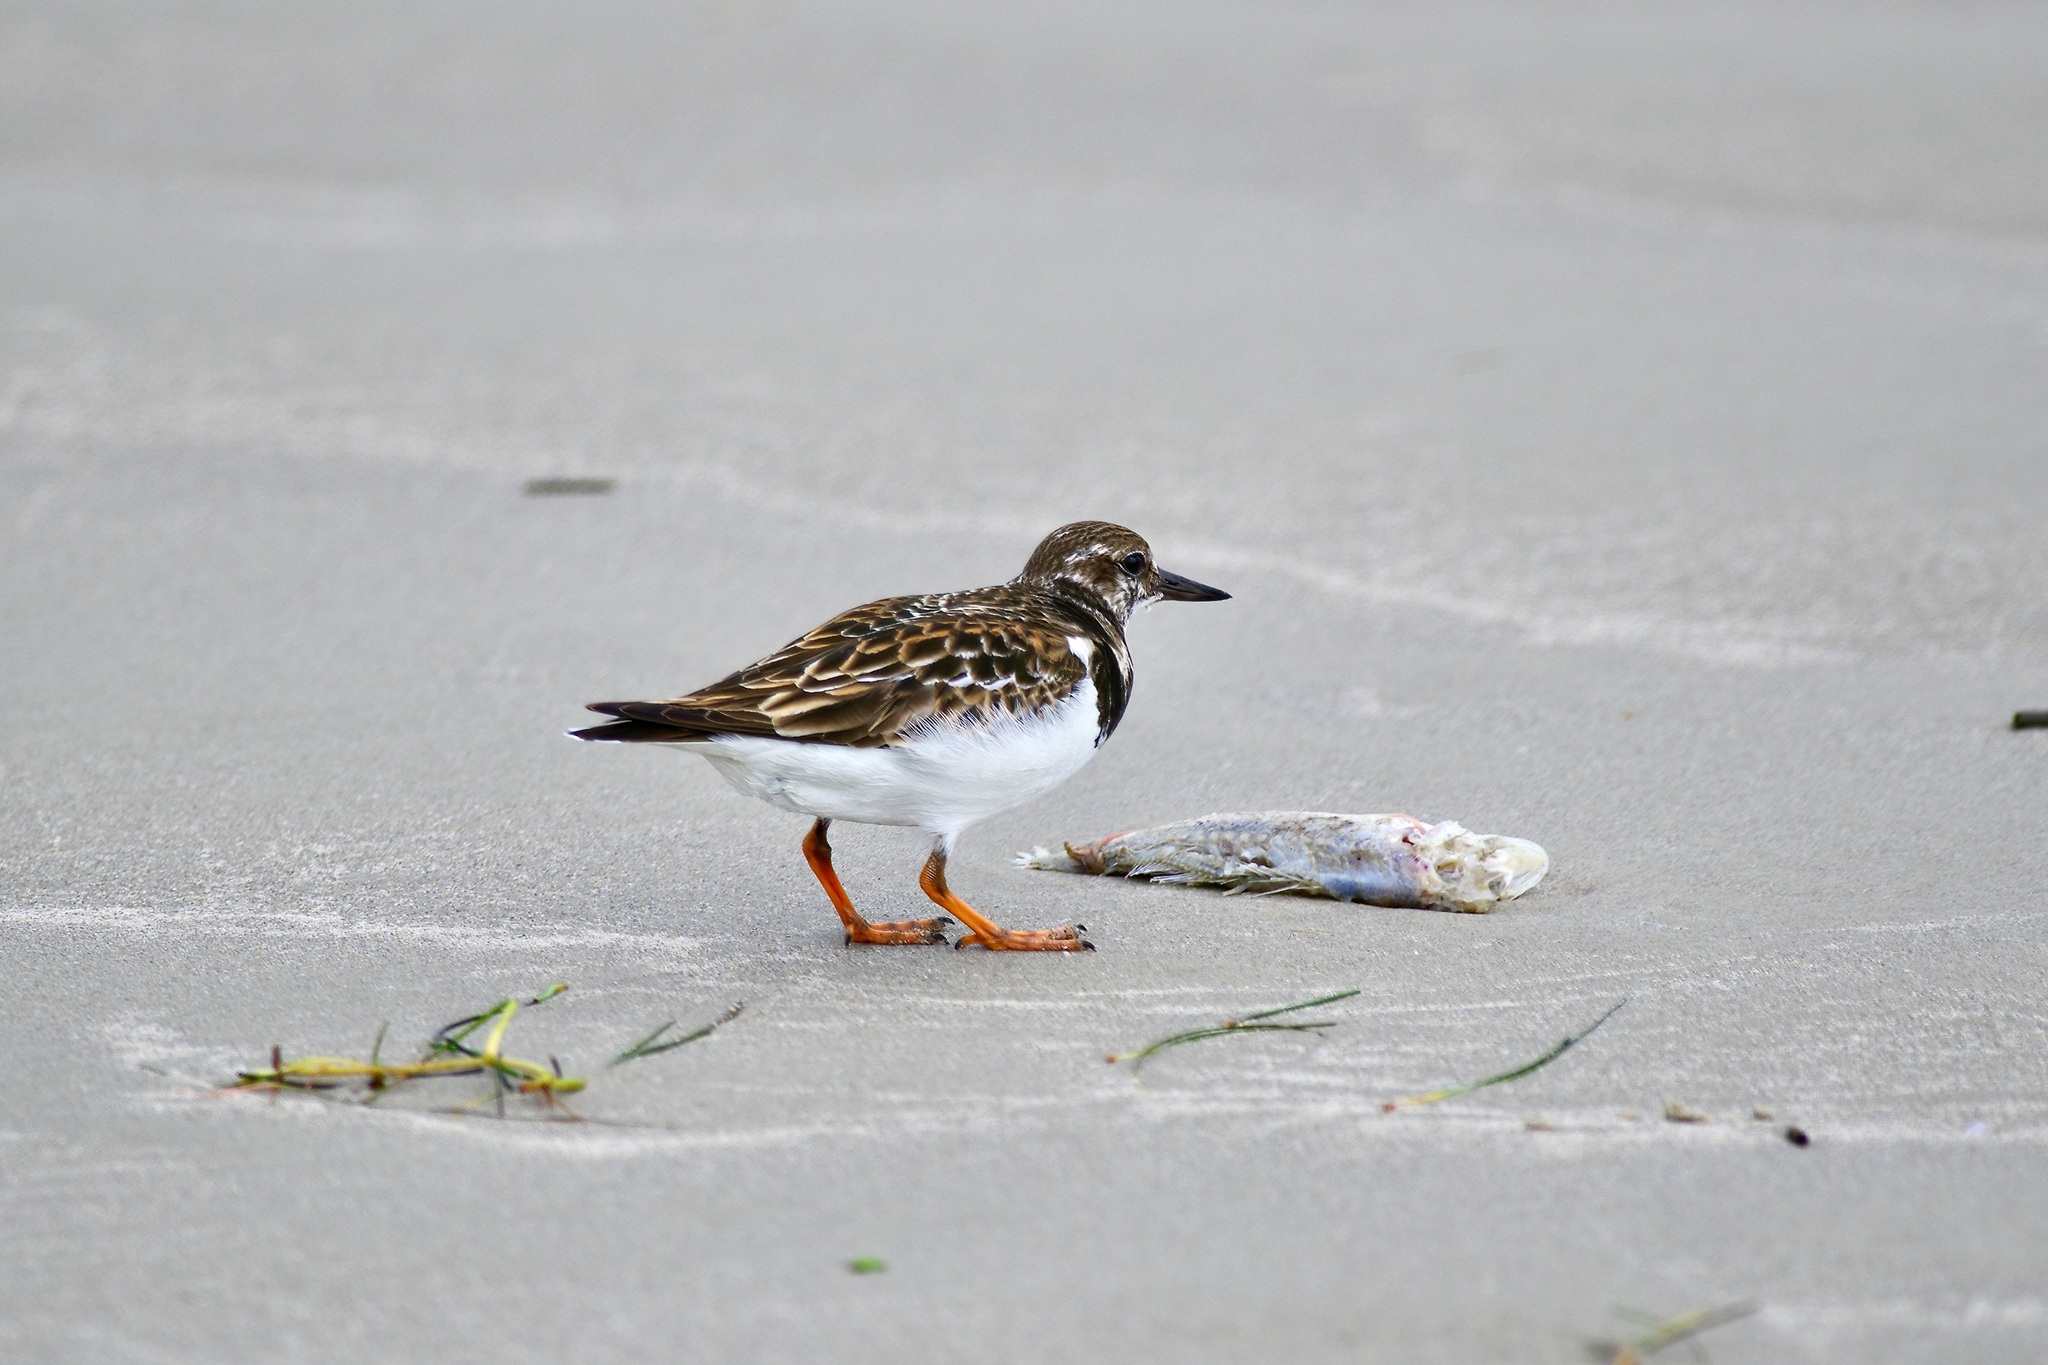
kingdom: Animalia
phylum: Chordata
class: Aves
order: Charadriiformes
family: Scolopacidae
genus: Arenaria
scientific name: Arenaria interpres
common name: Ruddy turnstone
